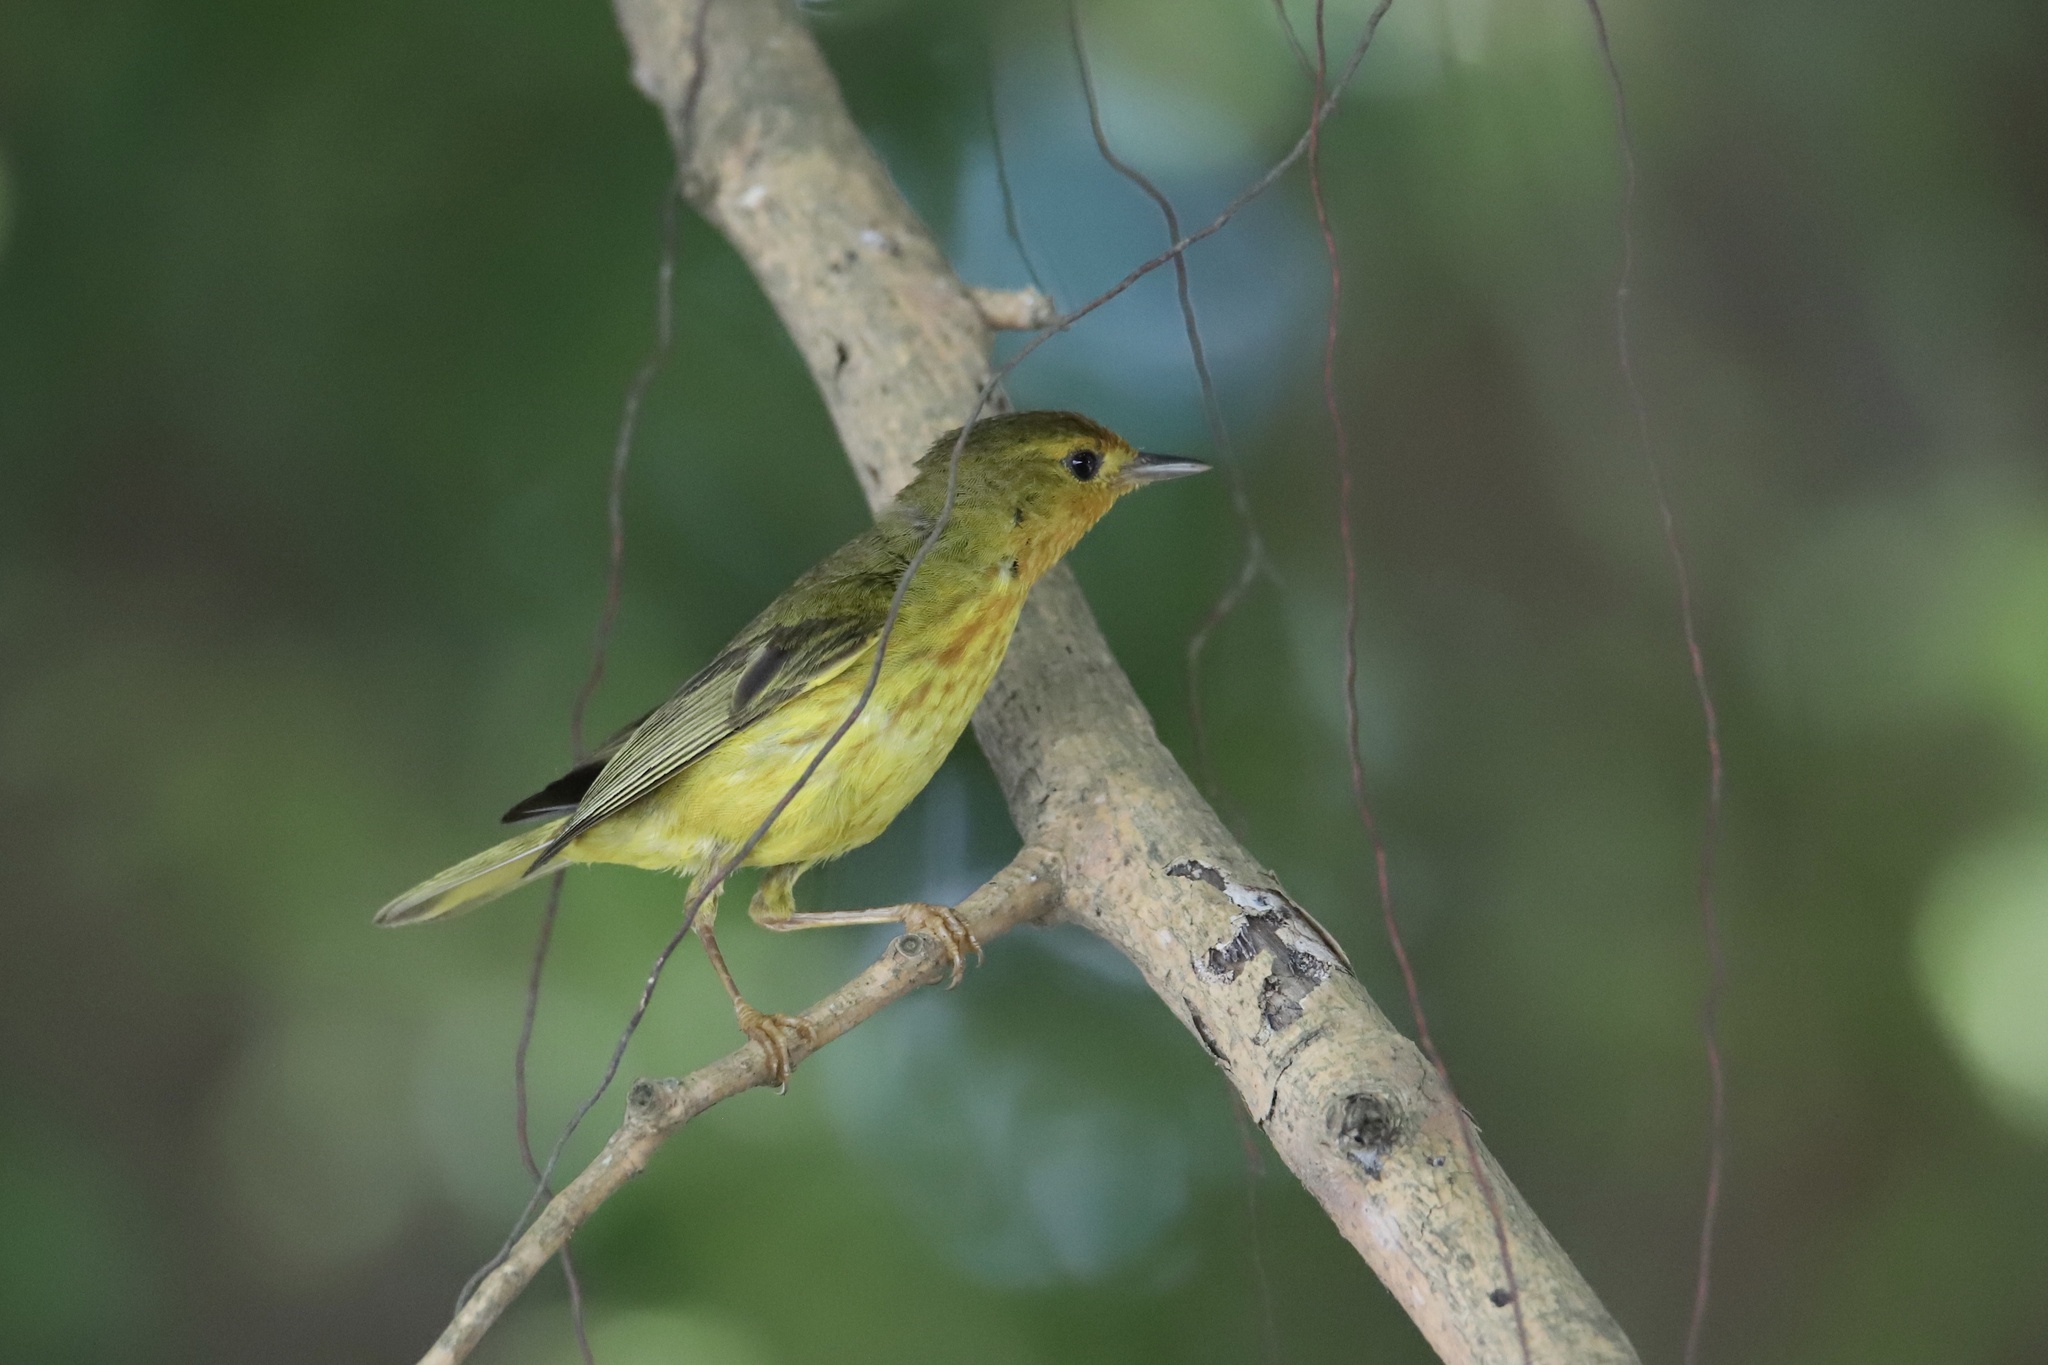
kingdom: Animalia
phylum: Chordata
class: Aves
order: Passeriformes
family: Parulidae
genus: Setophaga
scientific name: Setophaga petechia
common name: Yellow warbler
